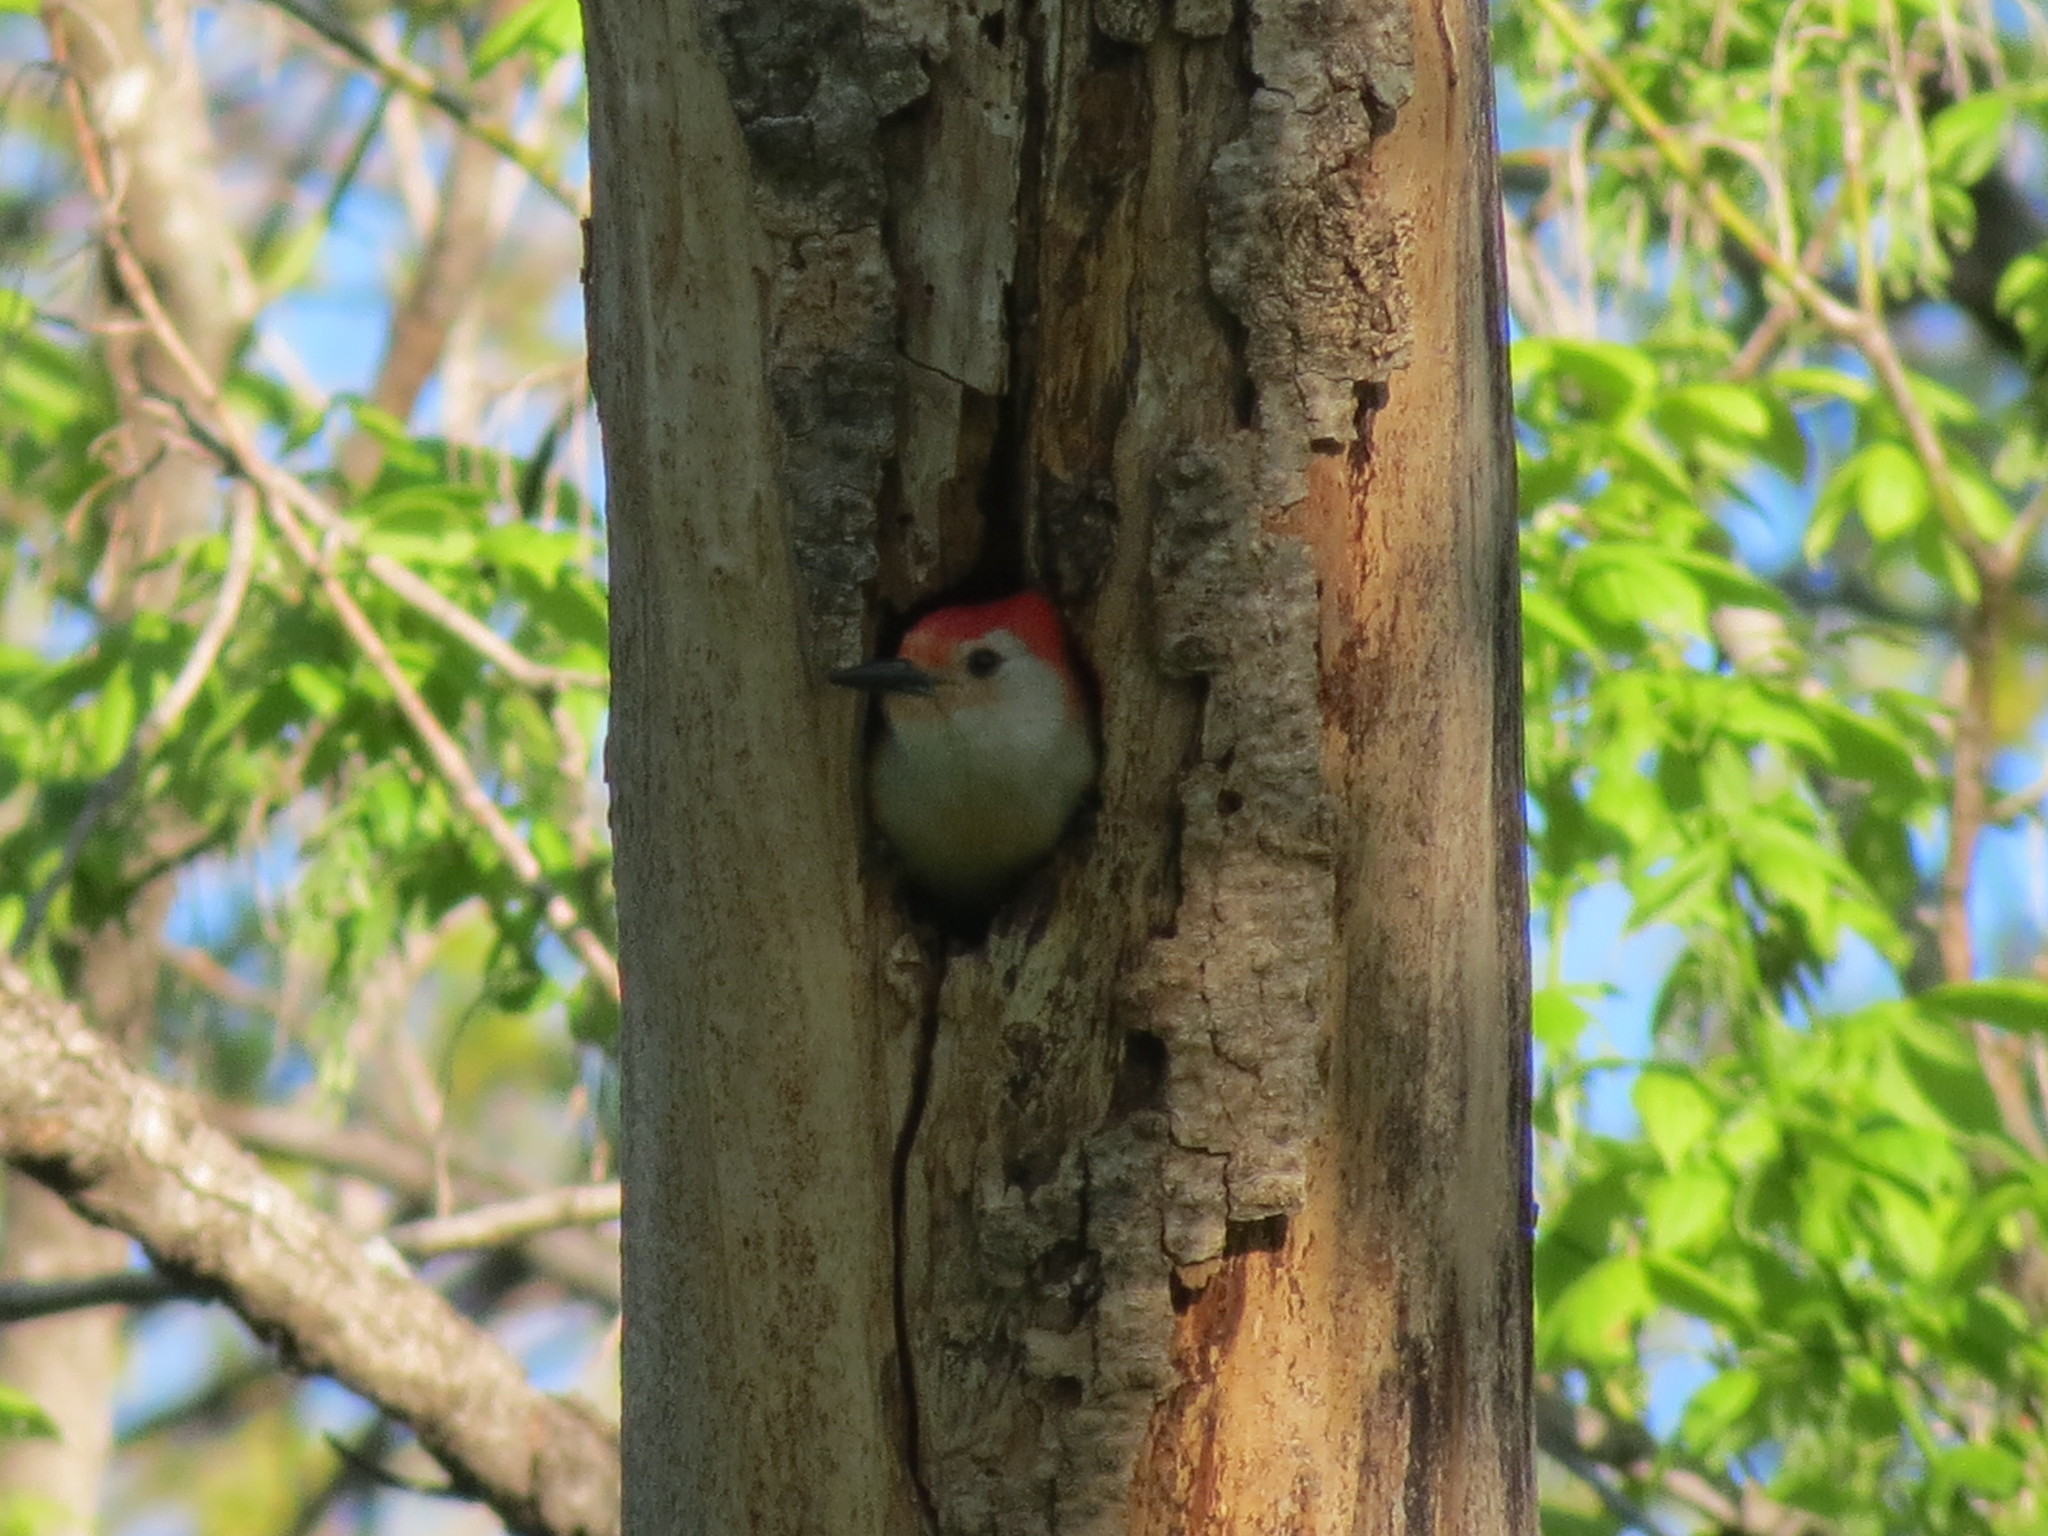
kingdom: Animalia
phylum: Chordata
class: Aves
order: Piciformes
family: Picidae
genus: Melanerpes
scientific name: Melanerpes carolinus
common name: Red-bellied woodpecker
